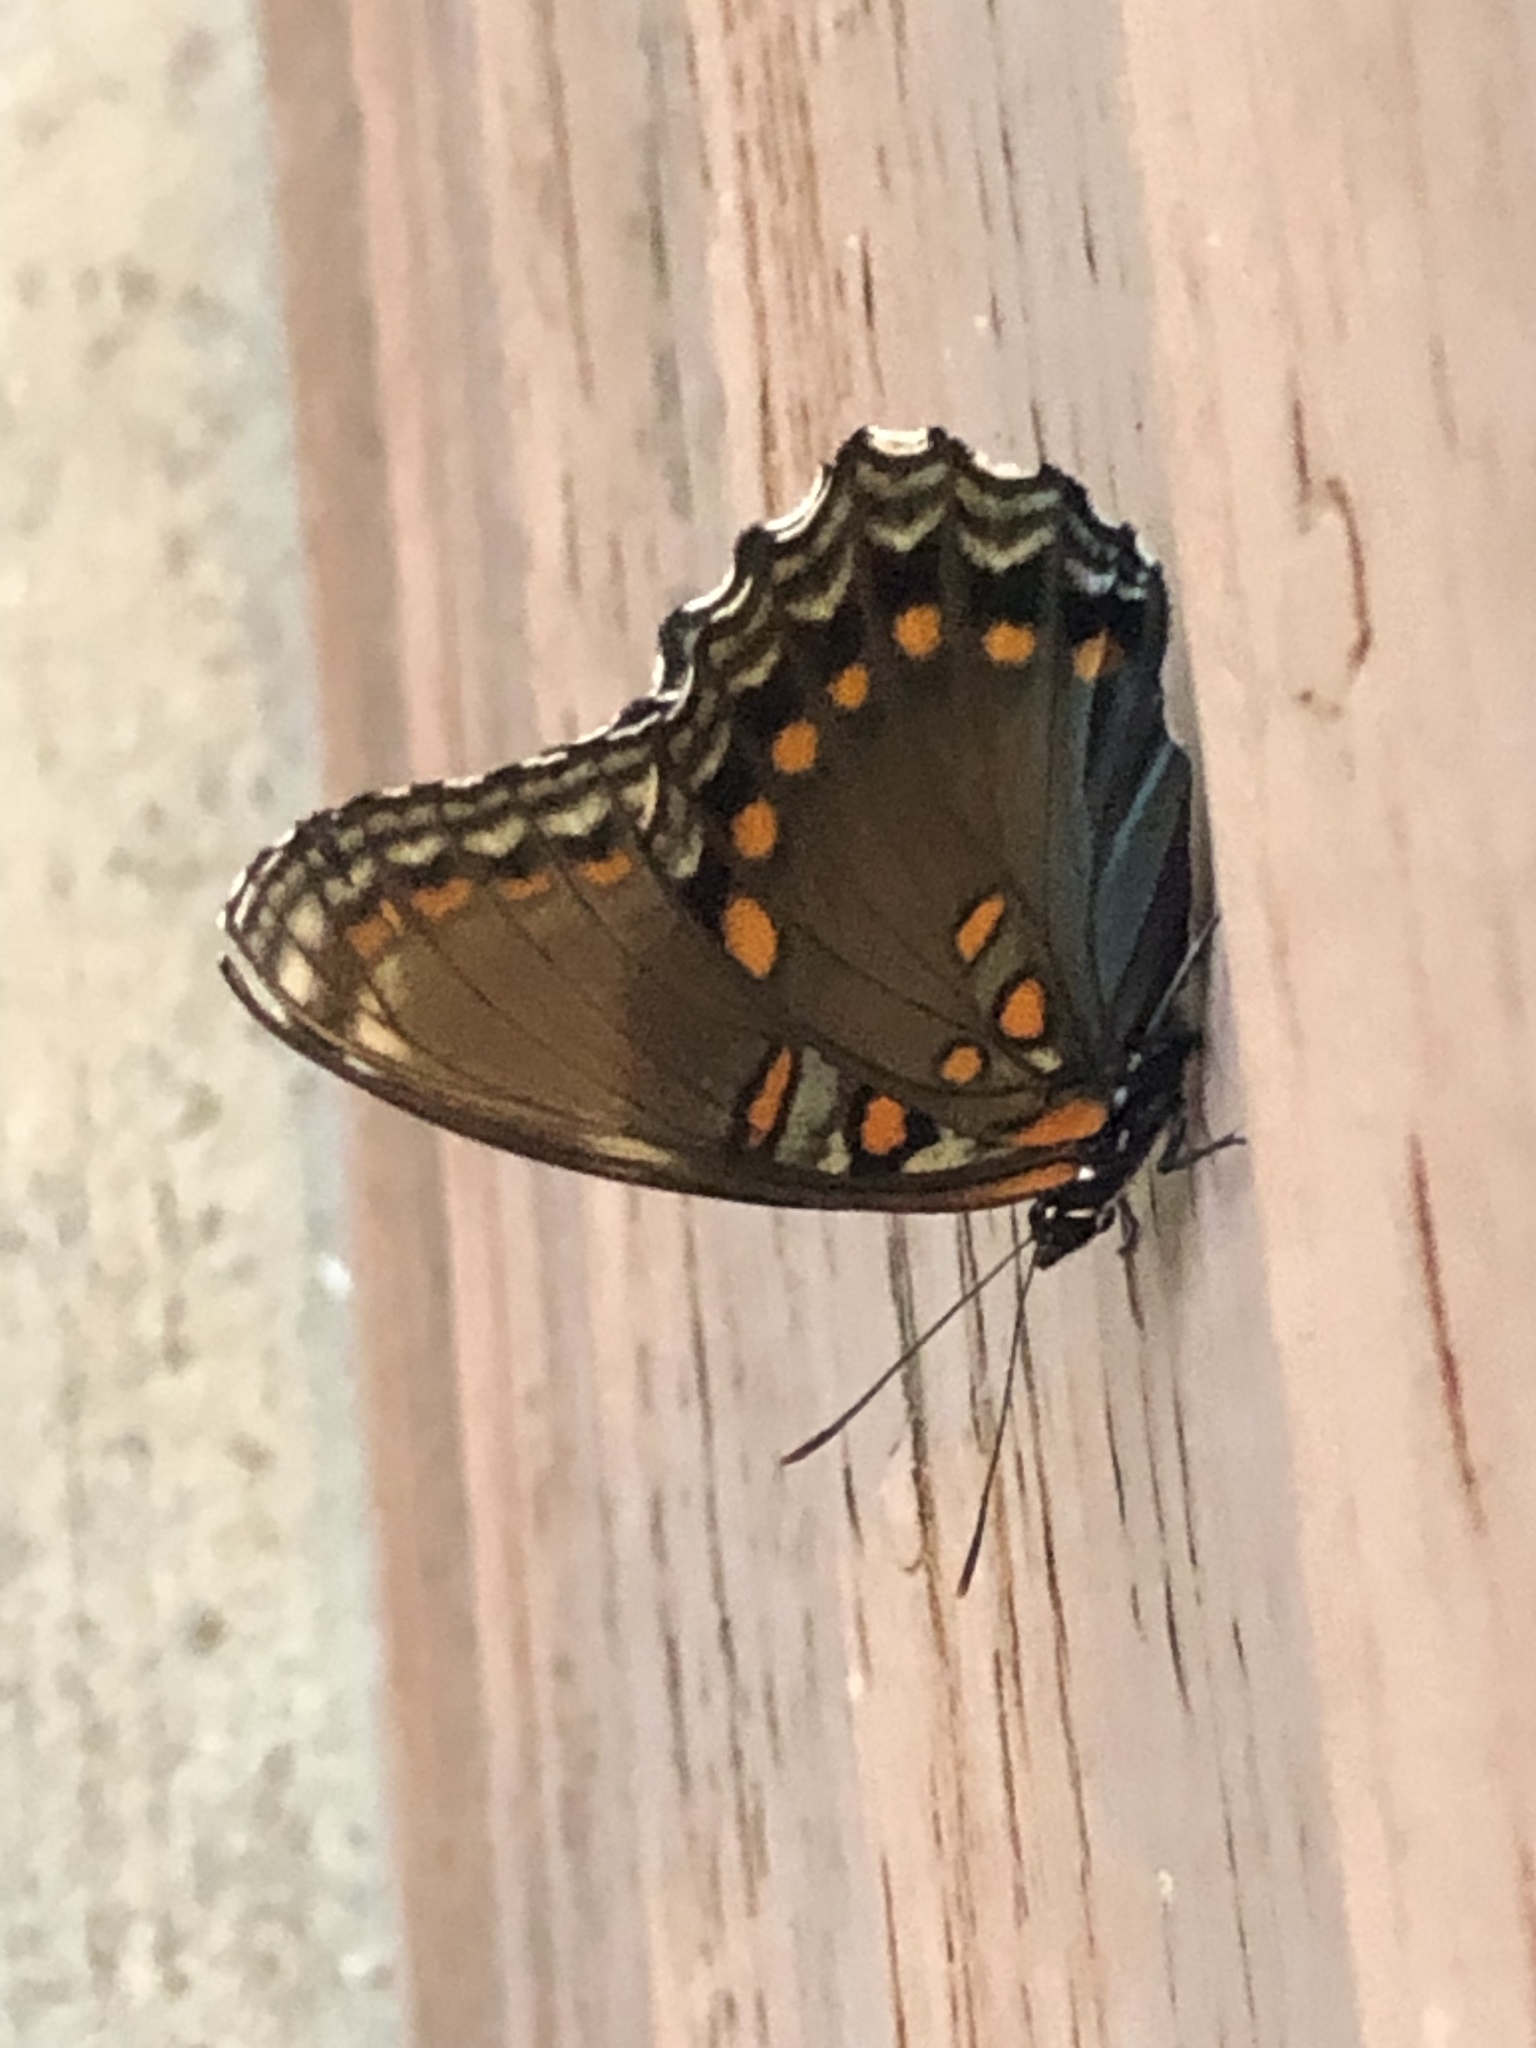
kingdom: Animalia
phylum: Arthropoda
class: Insecta
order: Lepidoptera
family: Nymphalidae
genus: Limenitis
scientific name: Limenitis arthemis
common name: Red-spotted admiral
